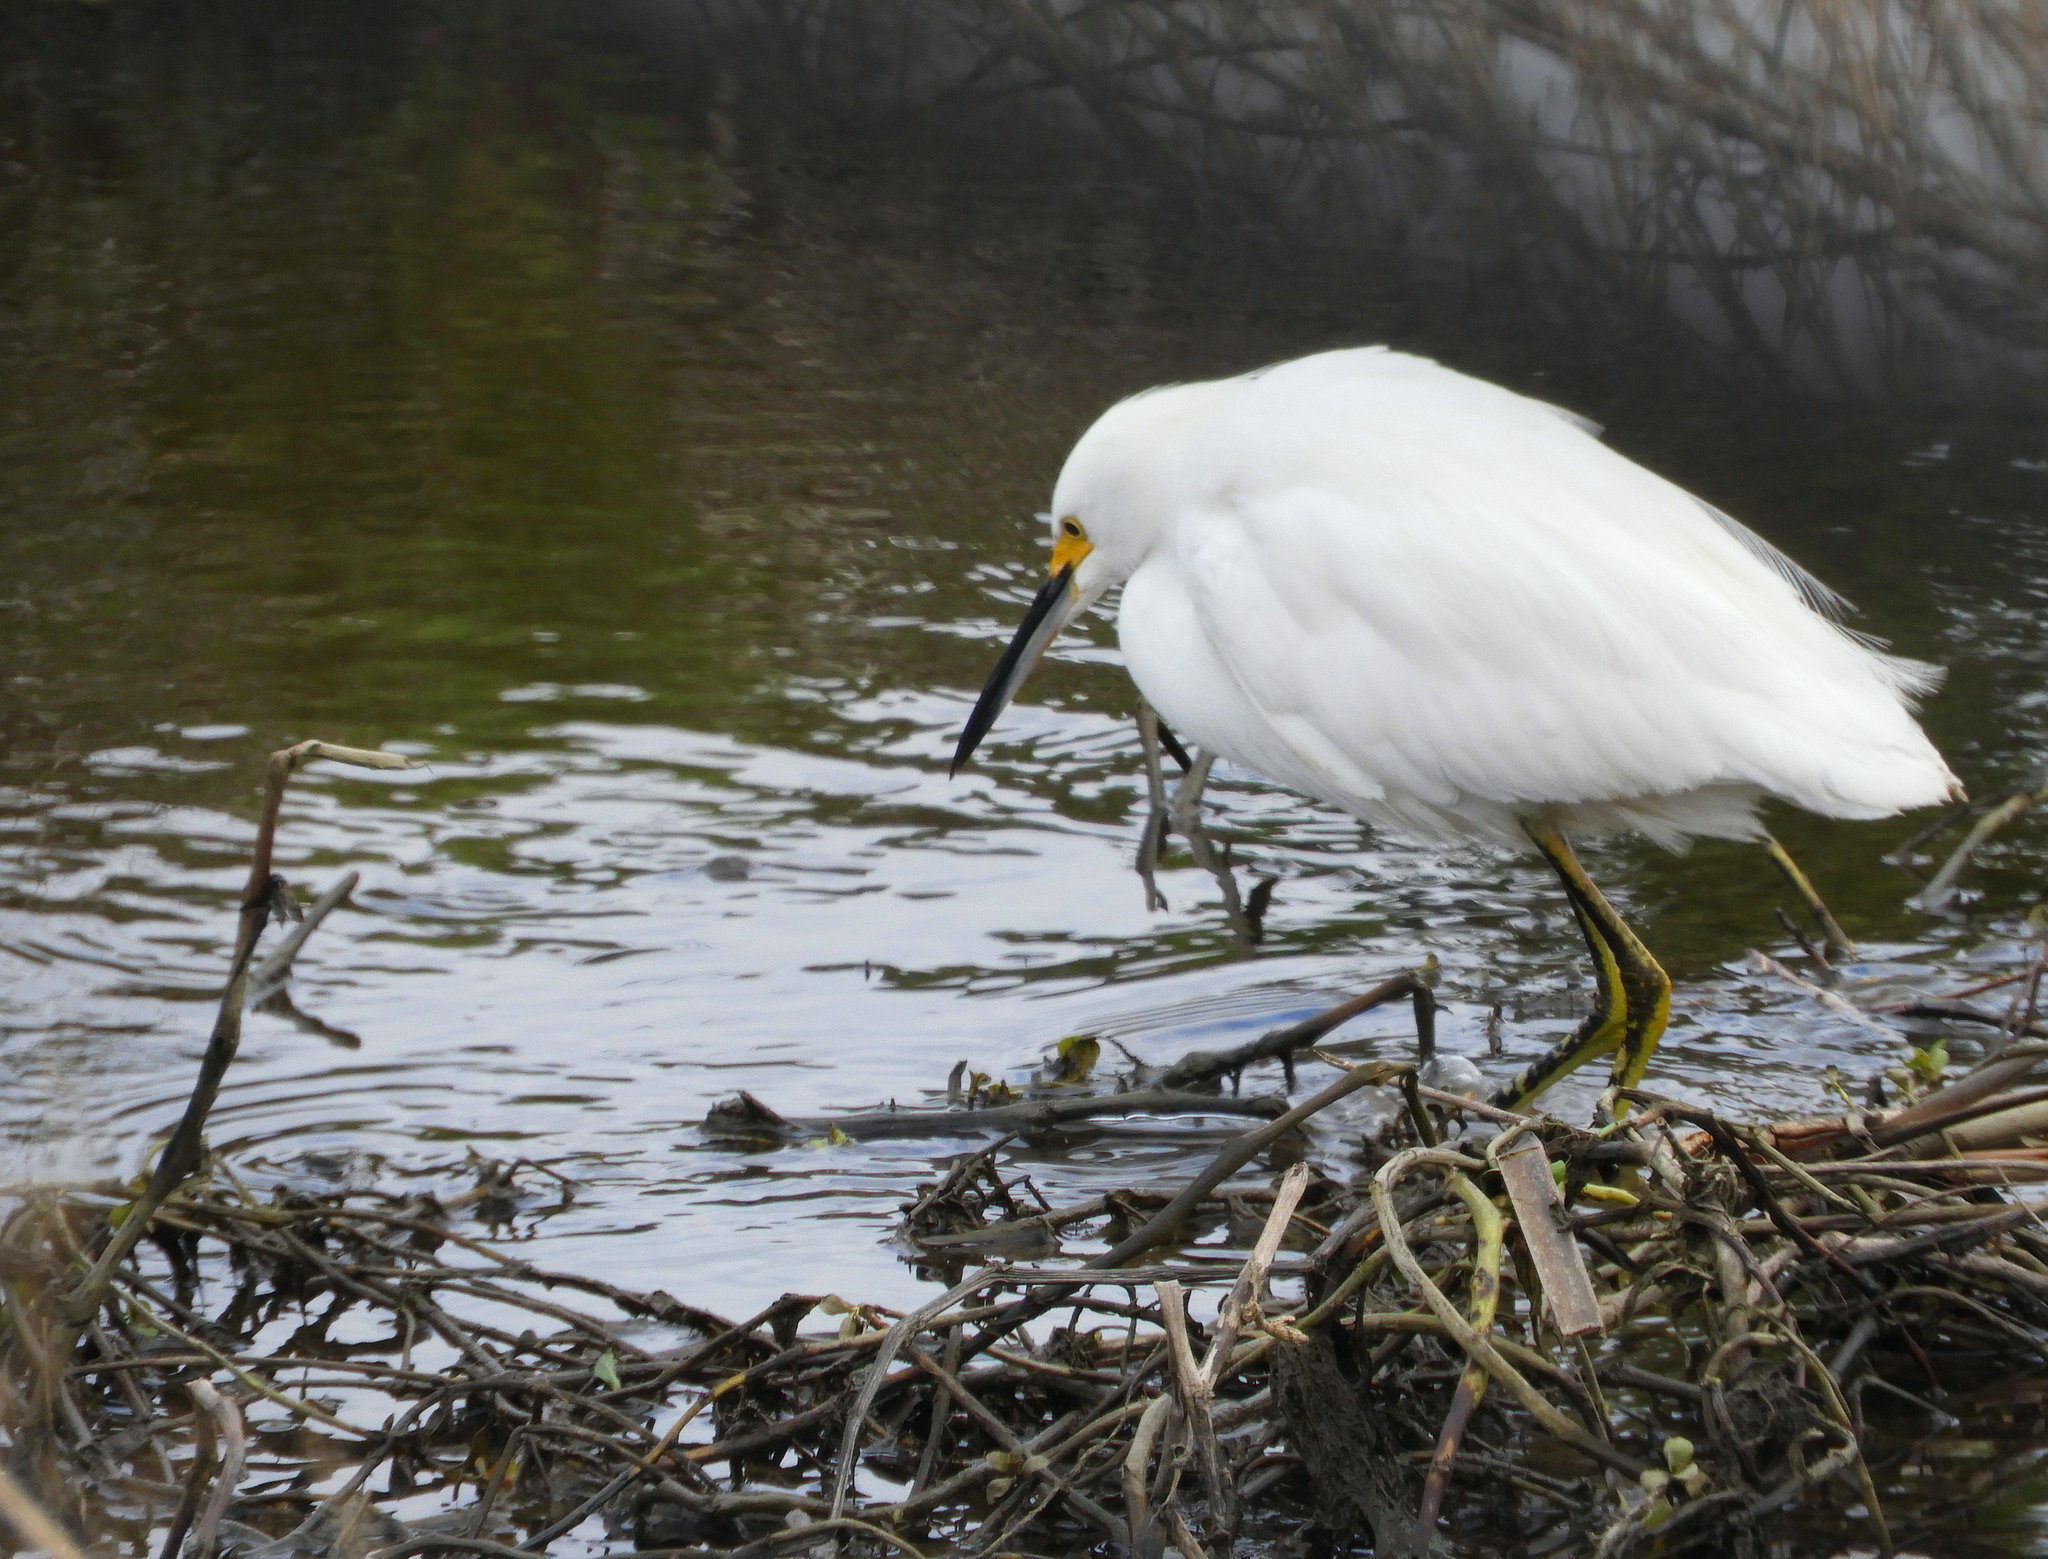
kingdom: Animalia
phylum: Chordata
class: Aves
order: Pelecaniformes
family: Ardeidae
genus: Egretta
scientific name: Egretta thula
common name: Snowy egret
